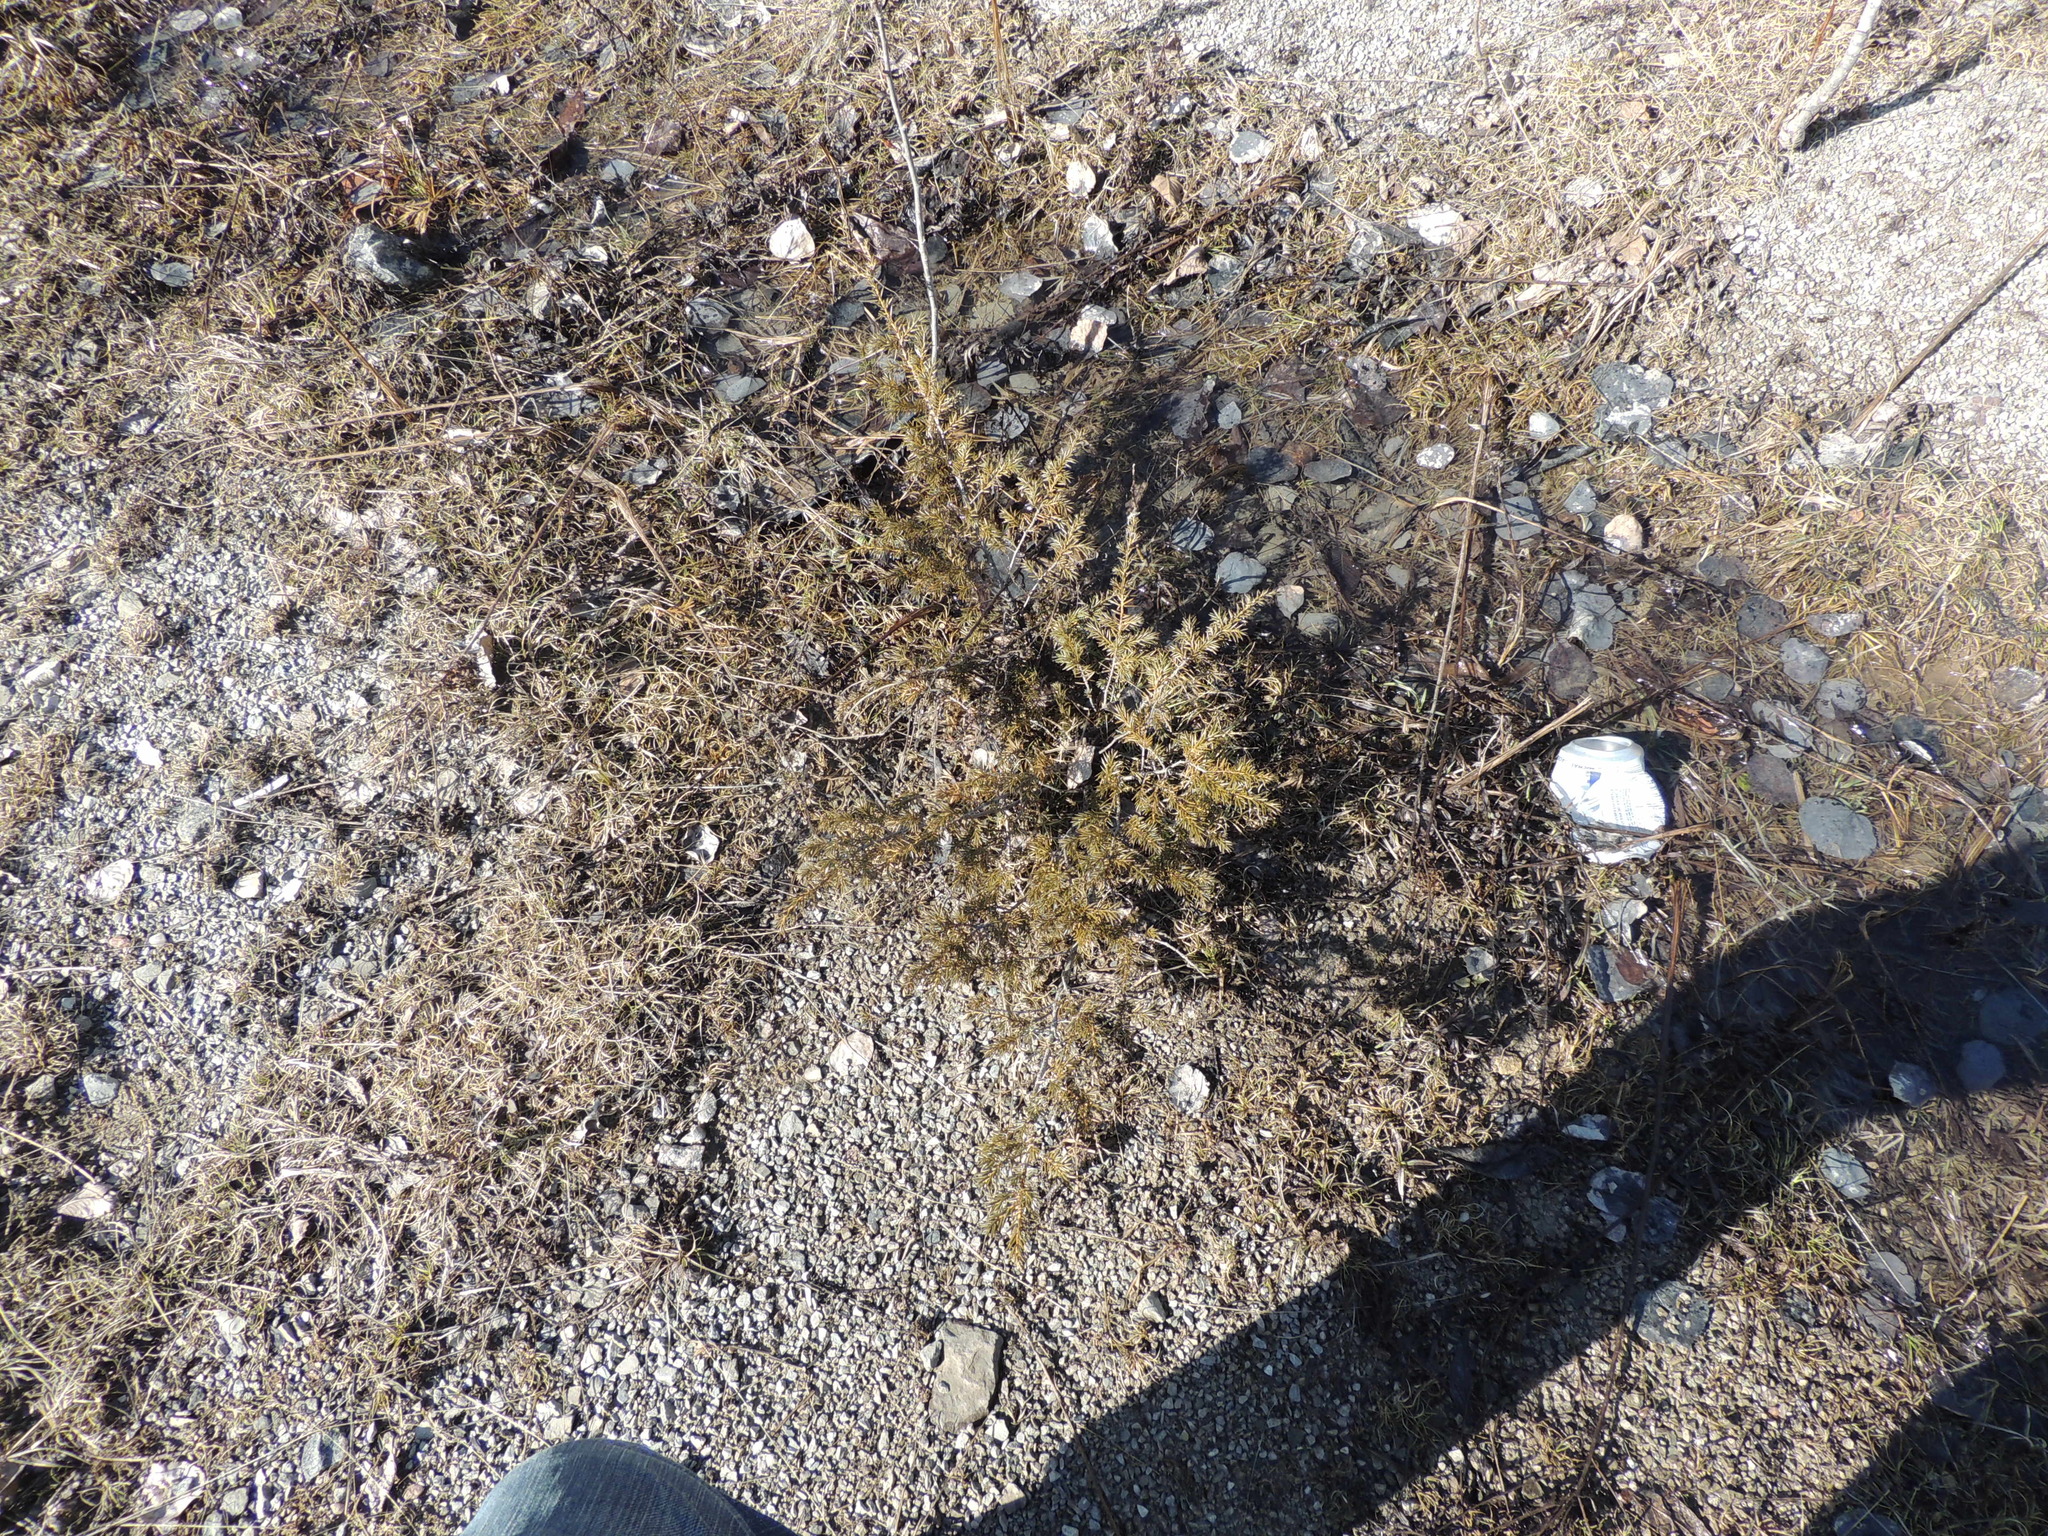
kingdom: Plantae
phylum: Tracheophyta
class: Pinopsida
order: Pinales
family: Cupressaceae
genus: Juniperus
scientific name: Juniperus communis
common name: Common juniper
